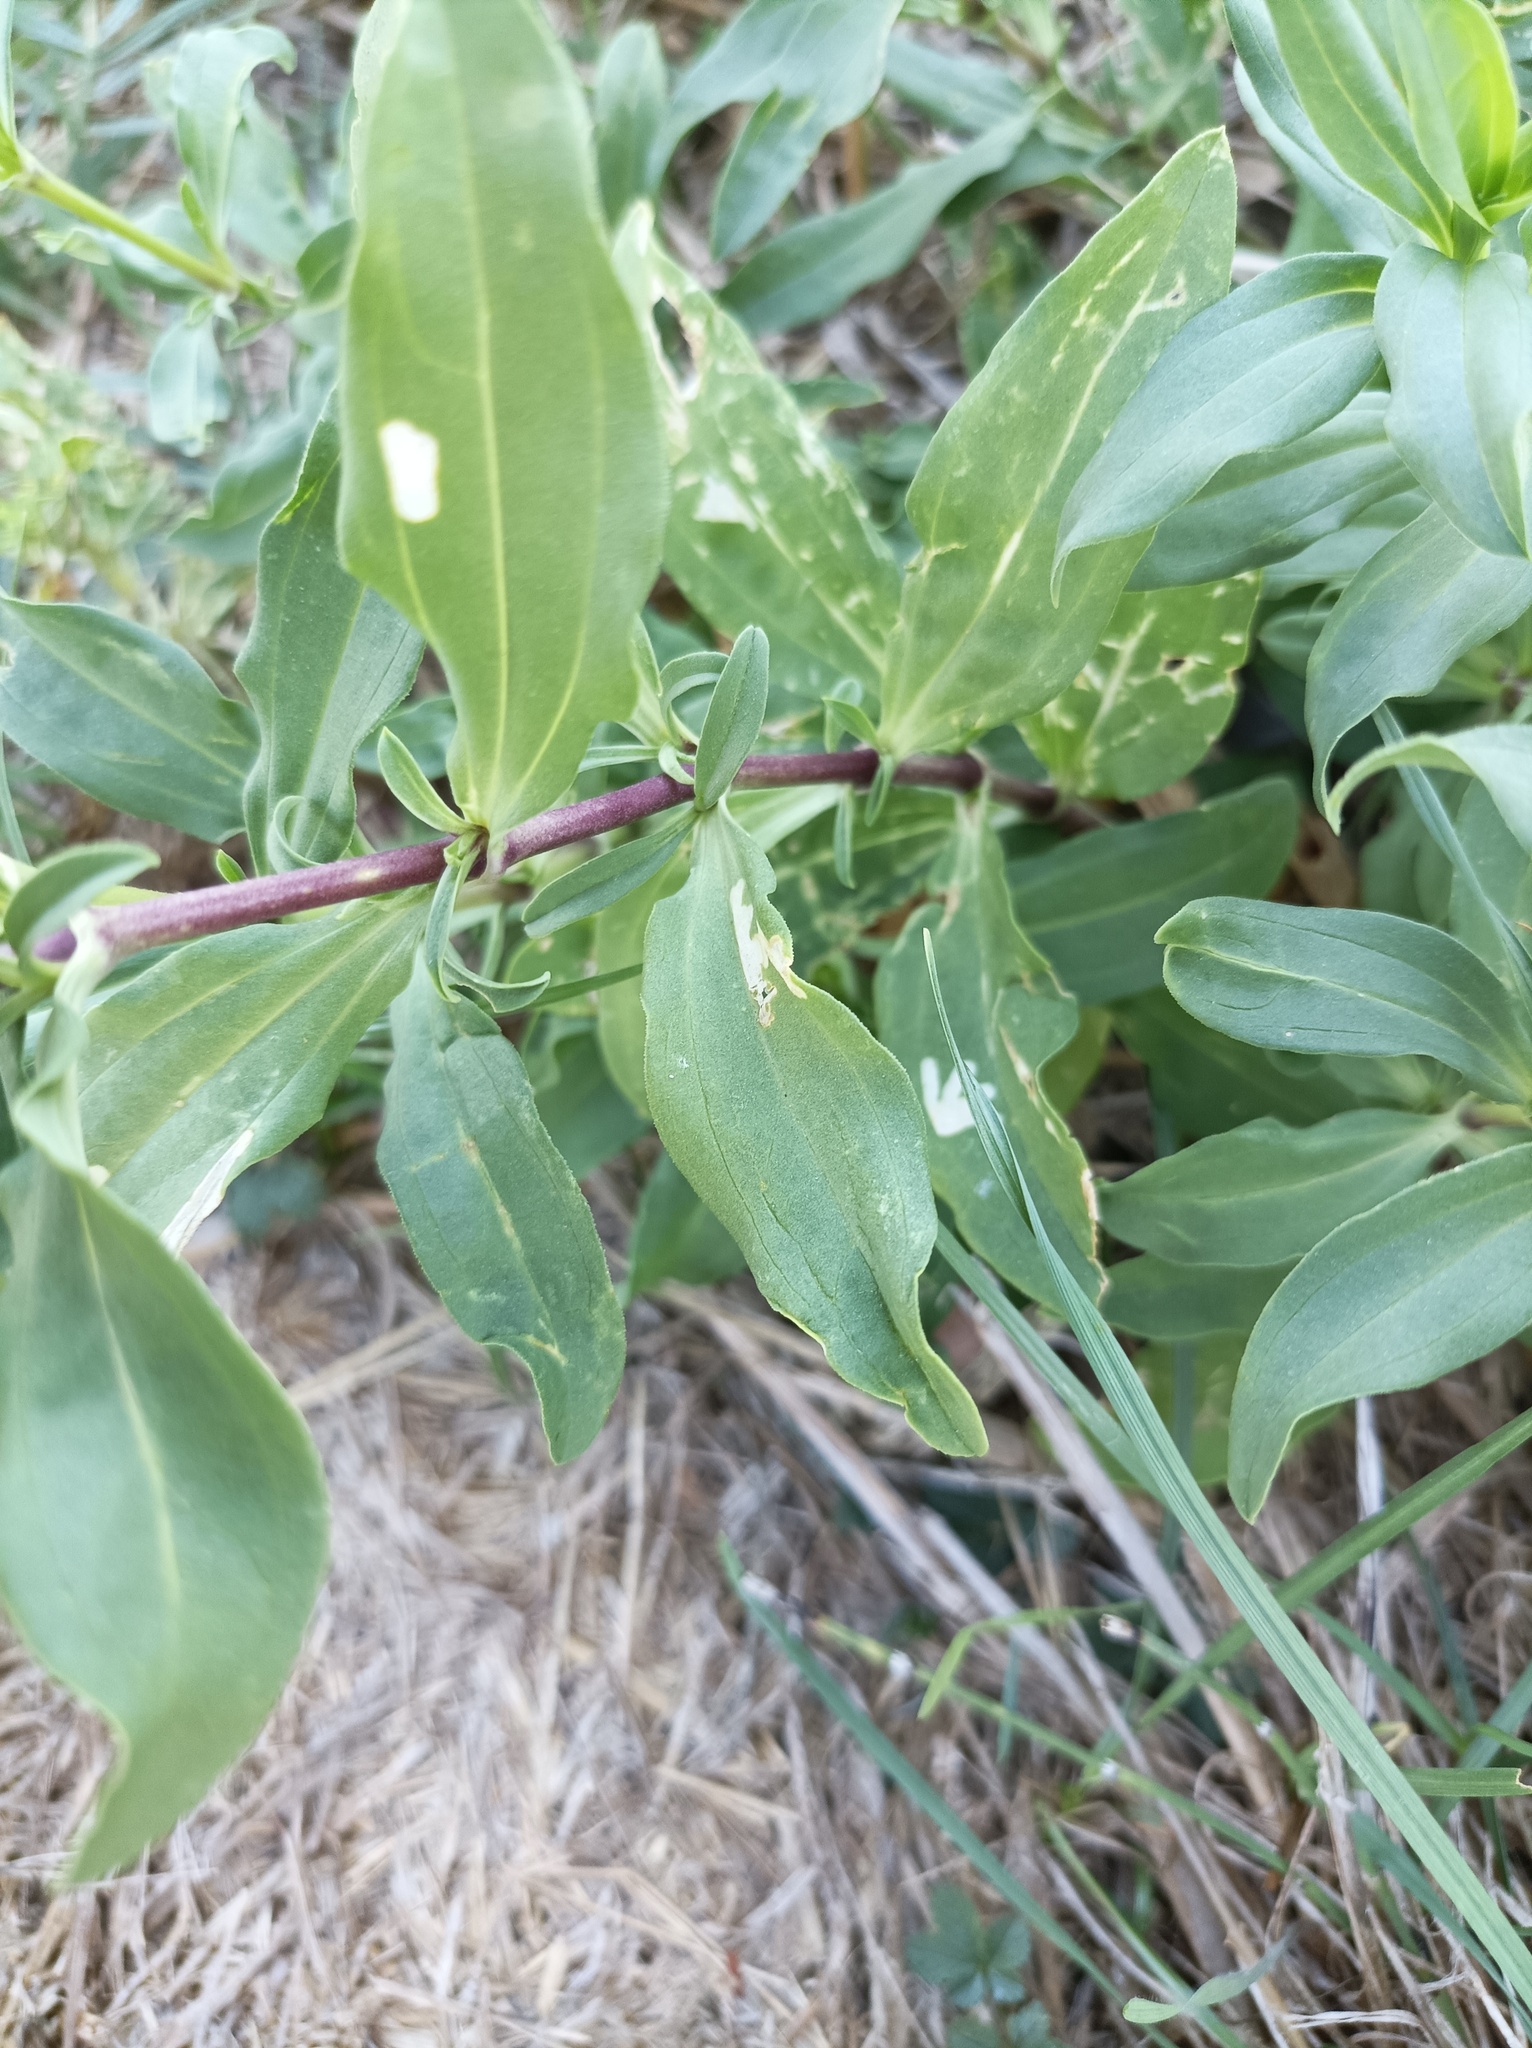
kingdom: Plantae
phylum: Tracheophyta
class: Magnoliopsida
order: Caryophyllales
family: Caryophyllaceae
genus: Saponaria
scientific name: Saponaria officinalis
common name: Soapwort
